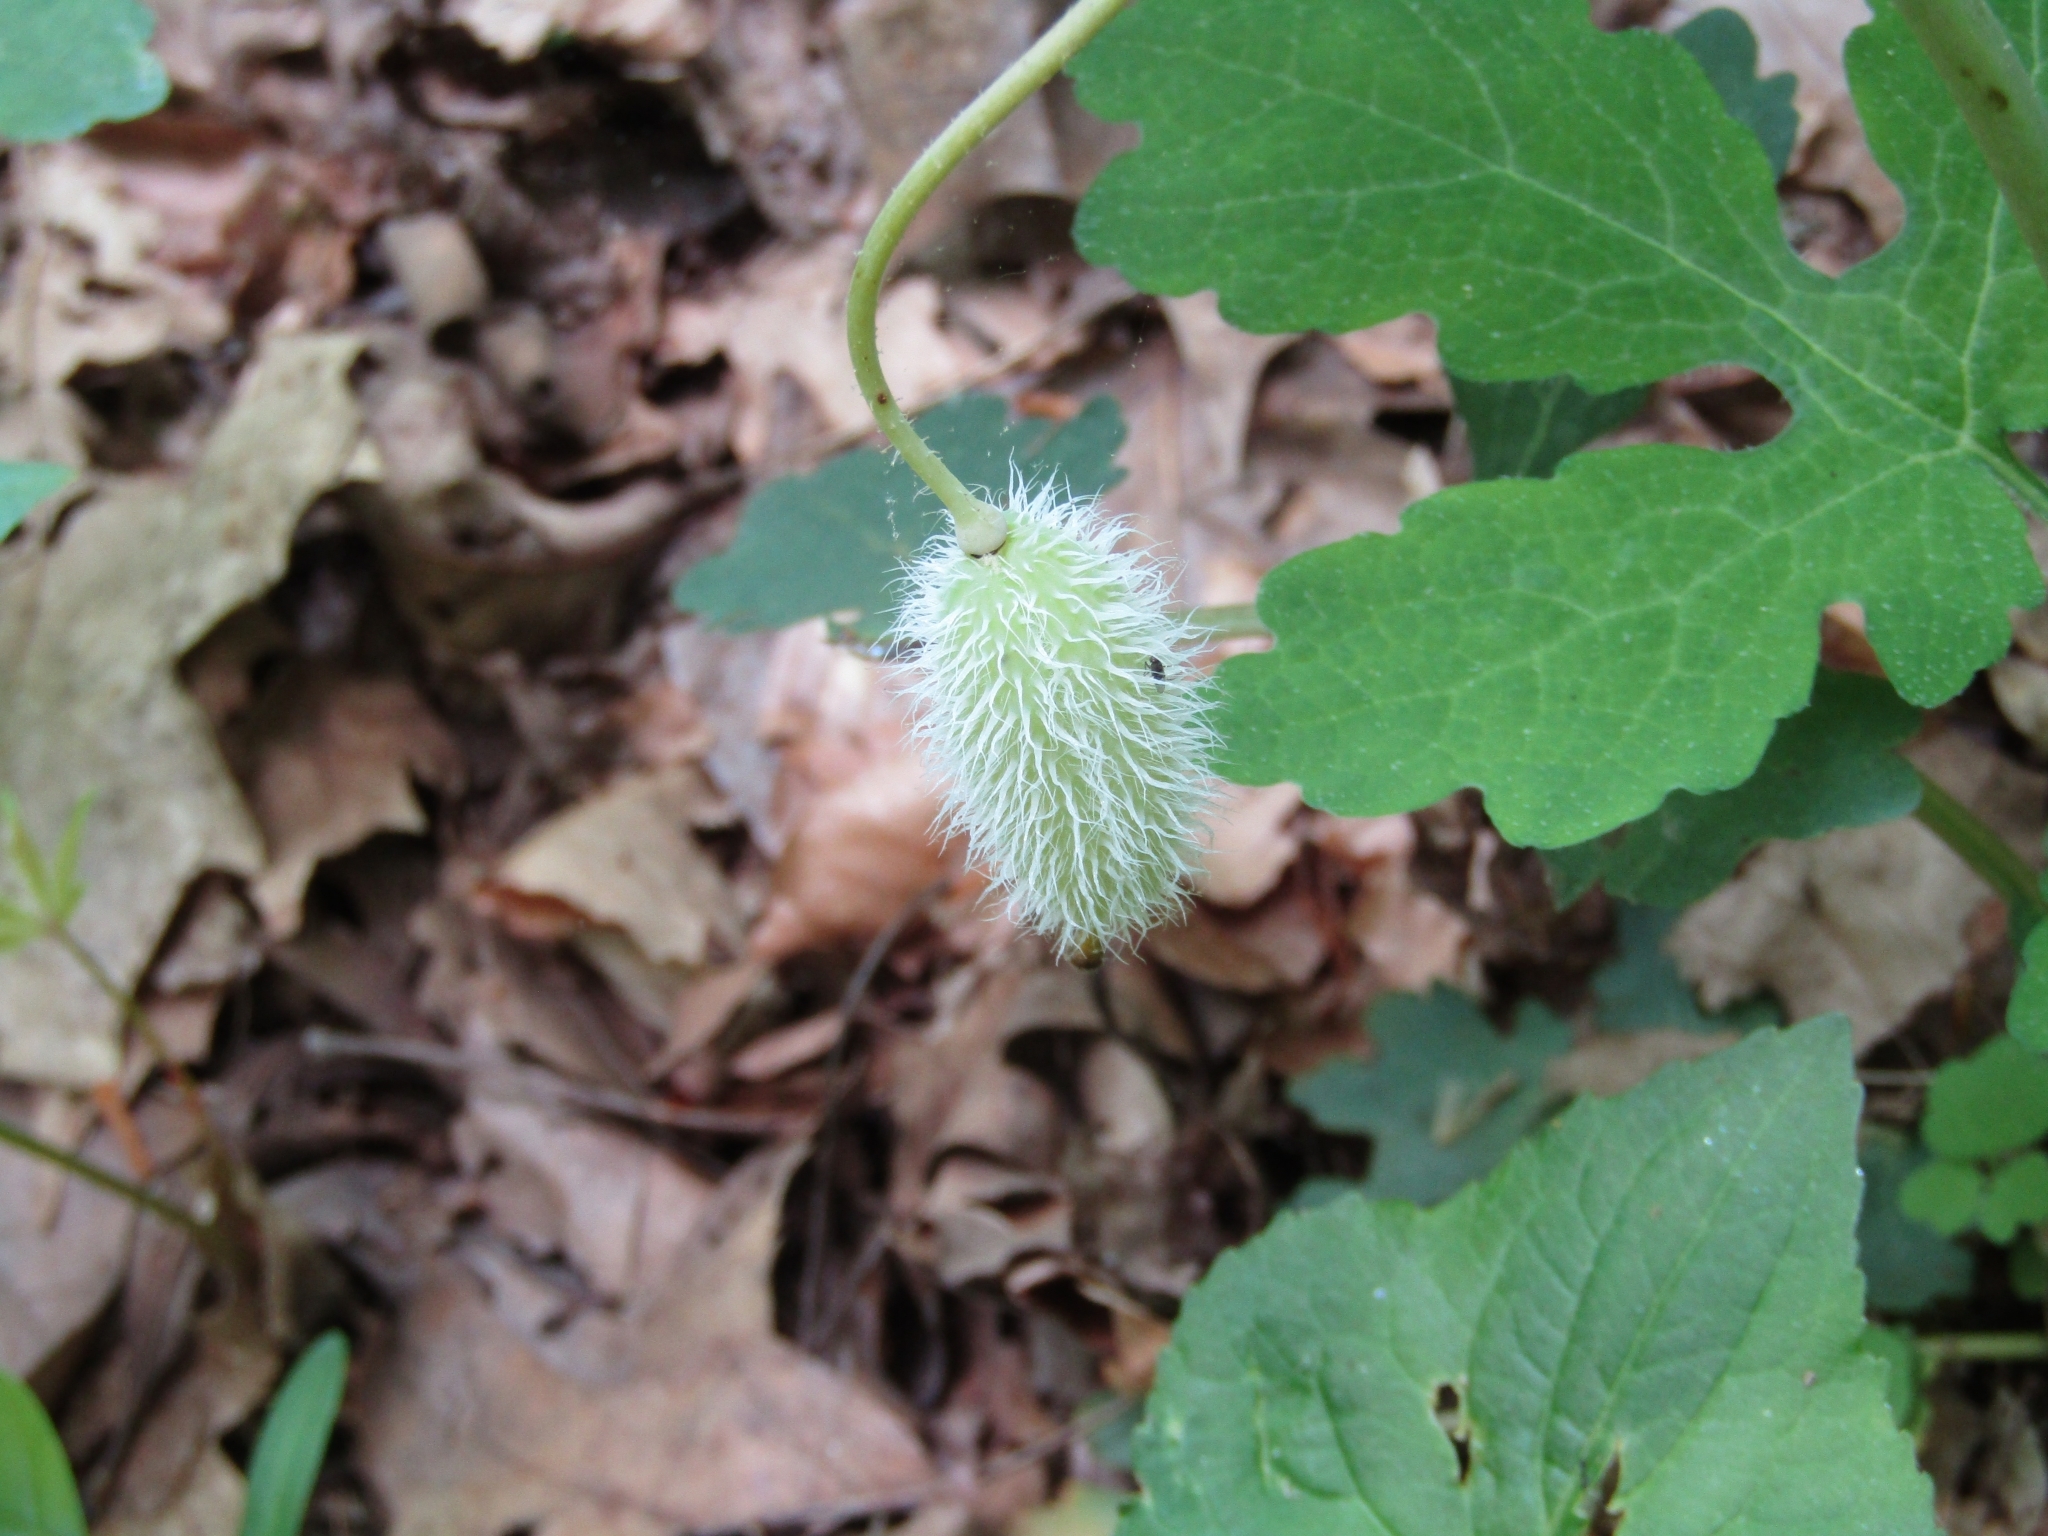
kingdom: Plantae
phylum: Tracheophyta
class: Magnoliopsida
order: Ranunculales
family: Papaveraceae
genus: Stylophorum
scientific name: Stylophorum diphyllum
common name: Celandine poppy
